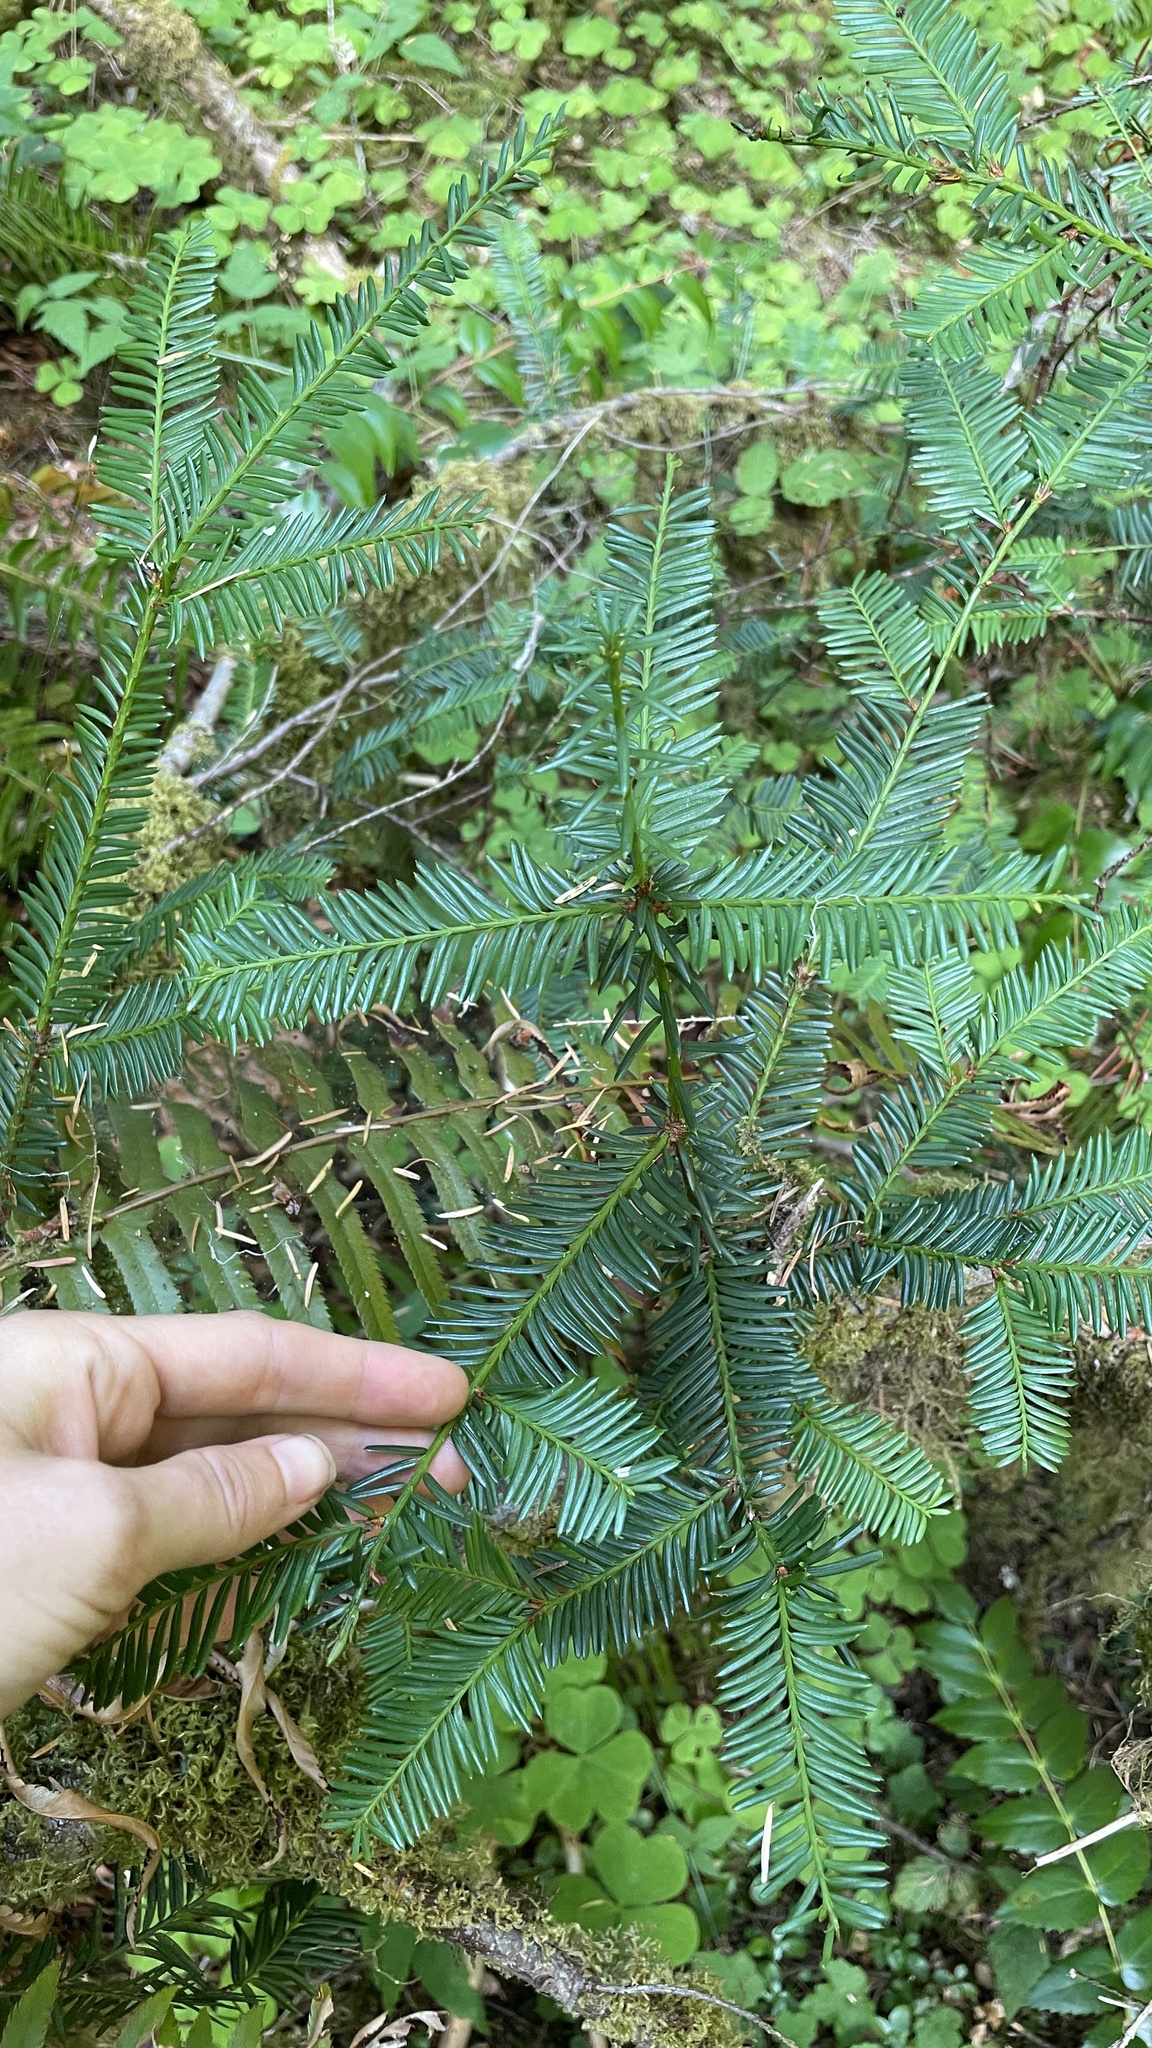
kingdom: Plantae
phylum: Tracheophyta
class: Pinopsida
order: Pinales
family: Taxaceae
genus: Taxus
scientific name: Taxus brevifolia
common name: Pacific yew
